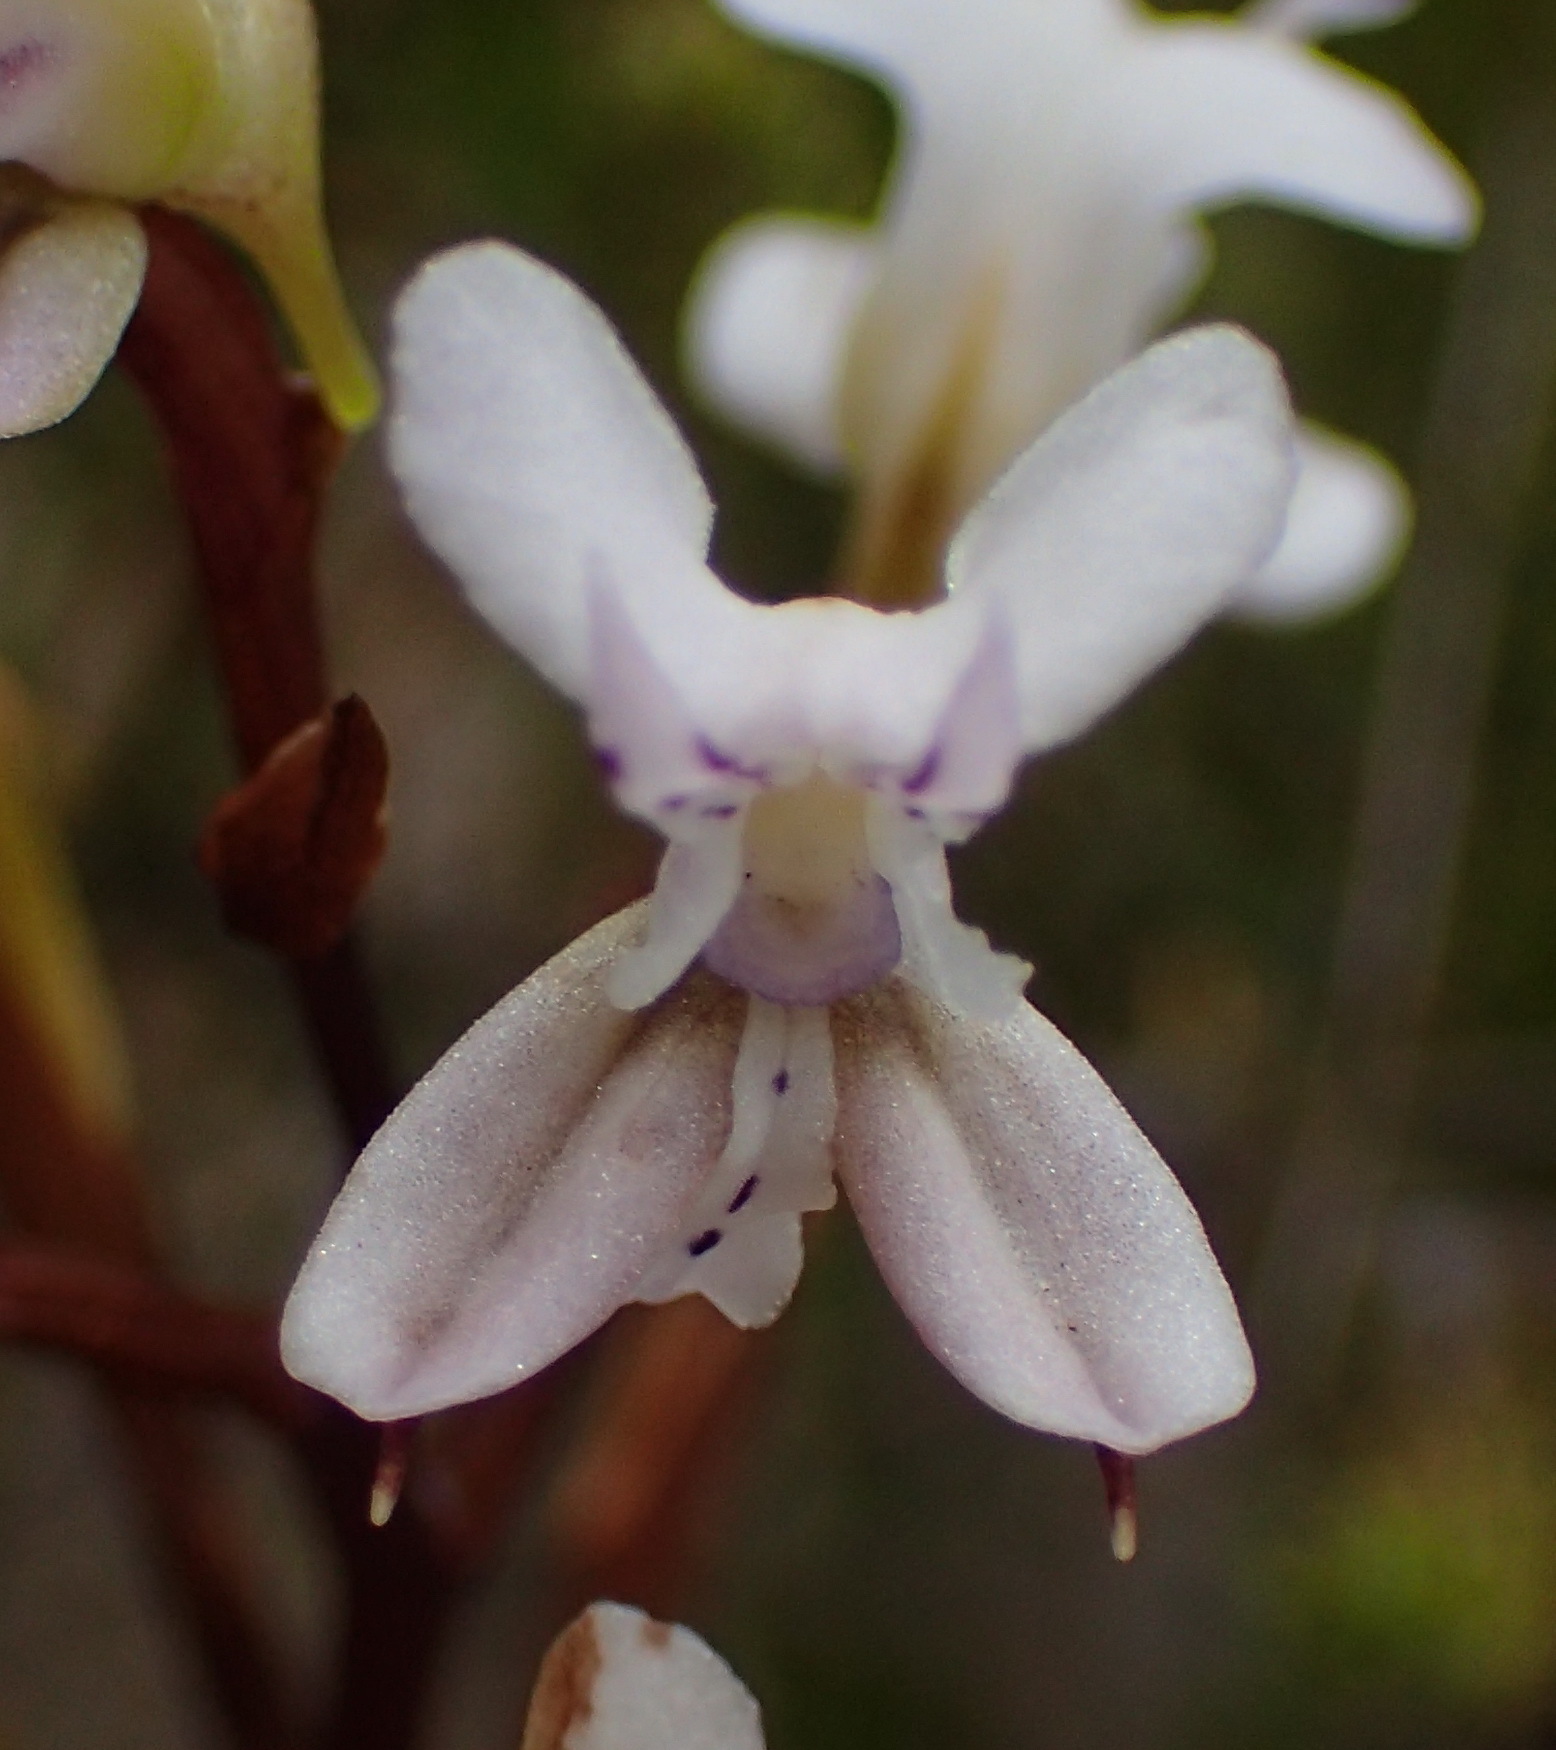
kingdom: Plantae
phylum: Tracheophyta
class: Liliopsida
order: Asparagales
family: Orchidaceae
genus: Disa
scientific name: Disa sagittalis
